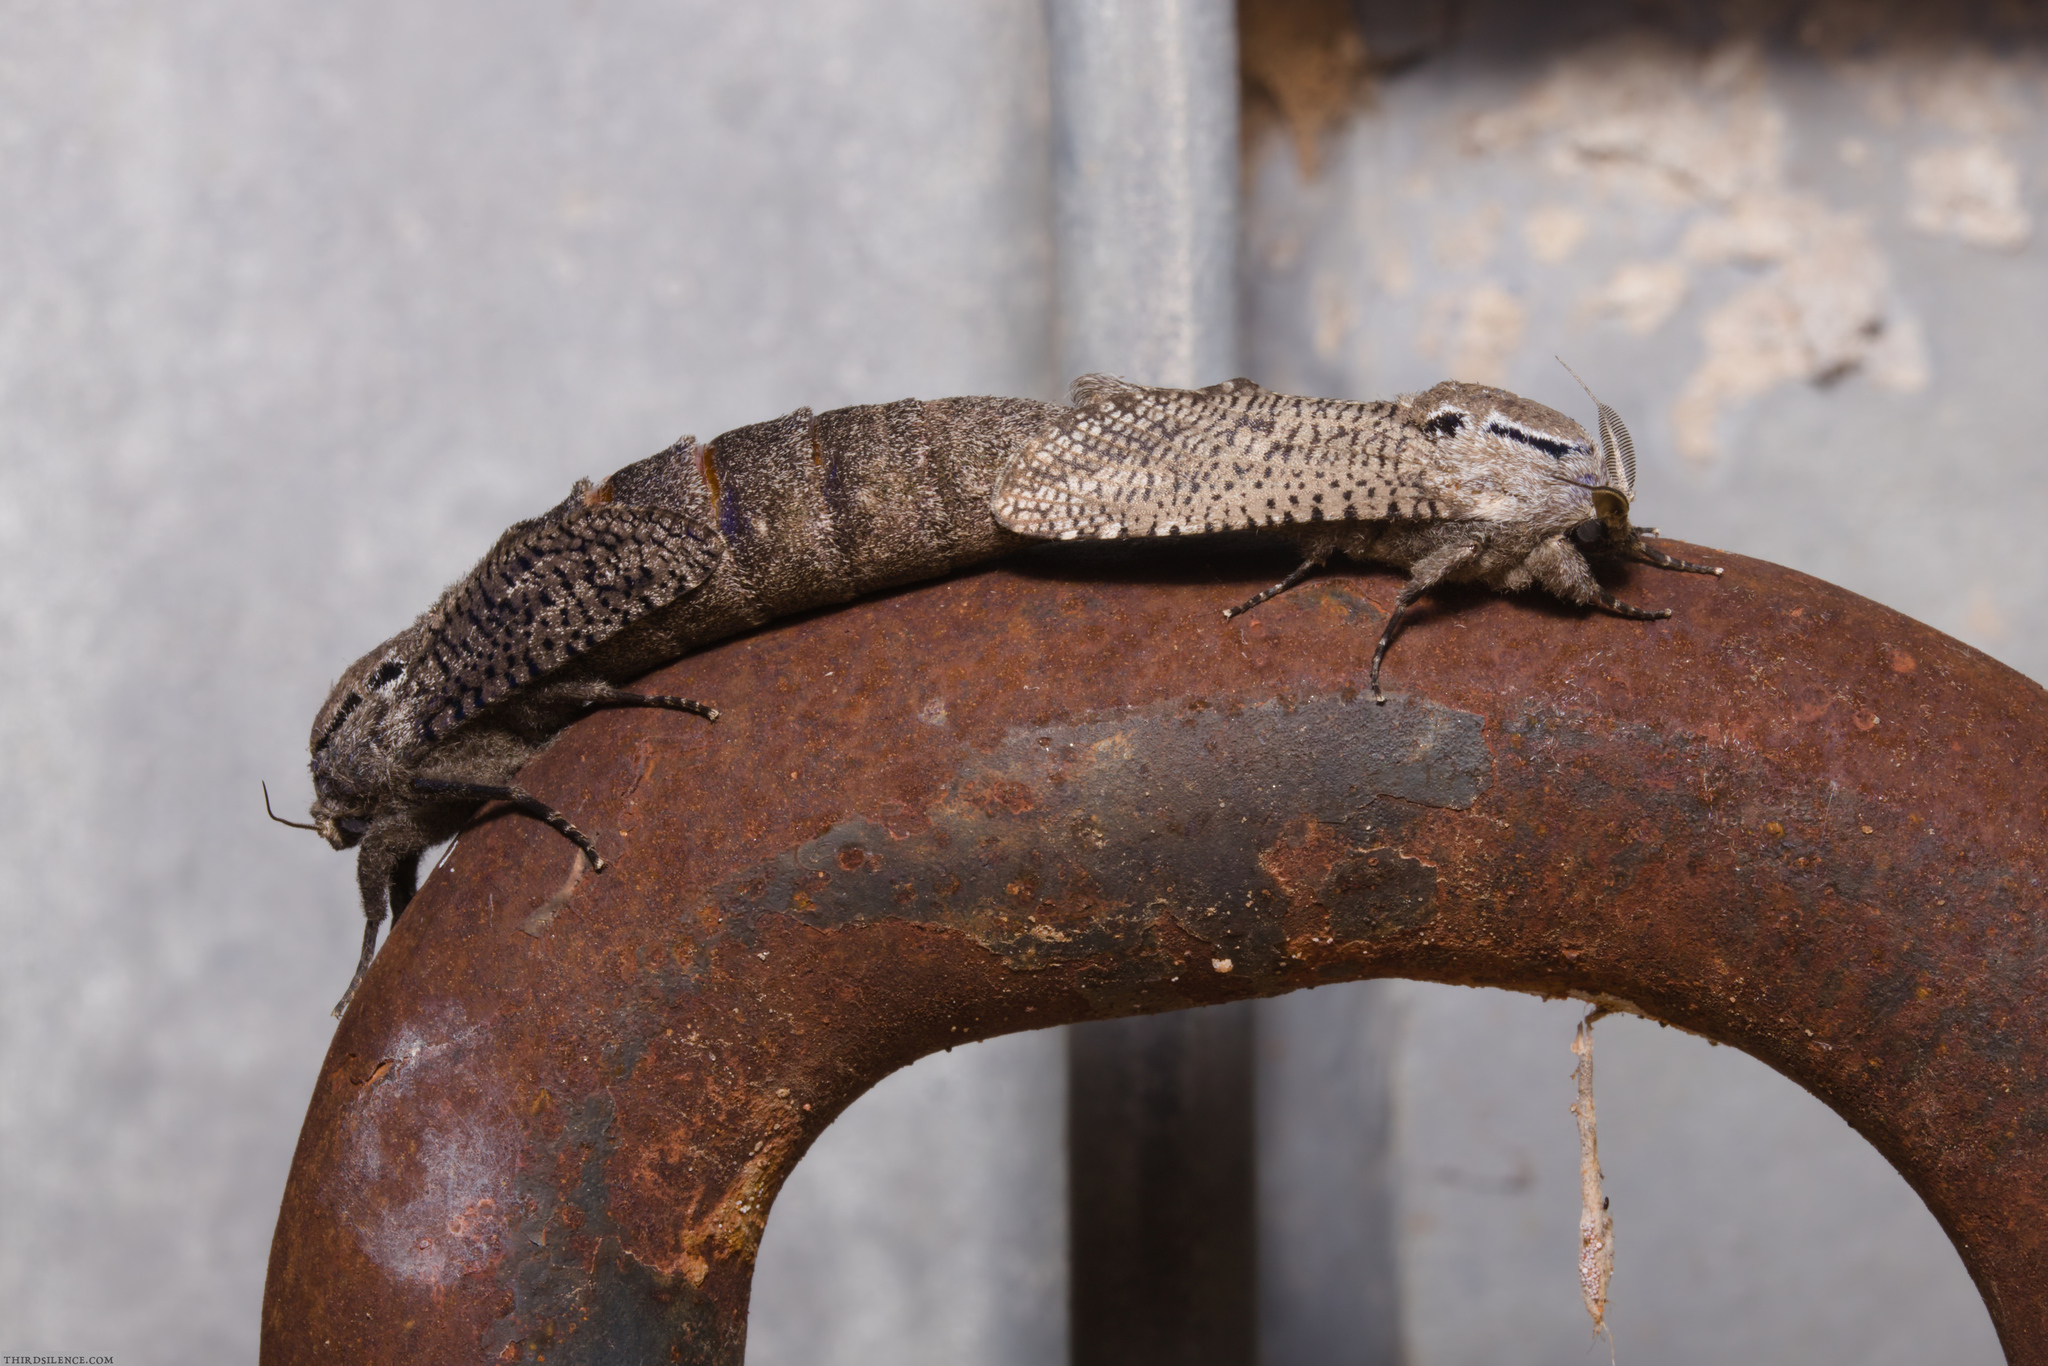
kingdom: Animalia
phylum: Arthropoda
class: Insecta
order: Lepidoptera
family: Cossidae
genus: Endoxyla
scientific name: Endoxyla amphiplecta
